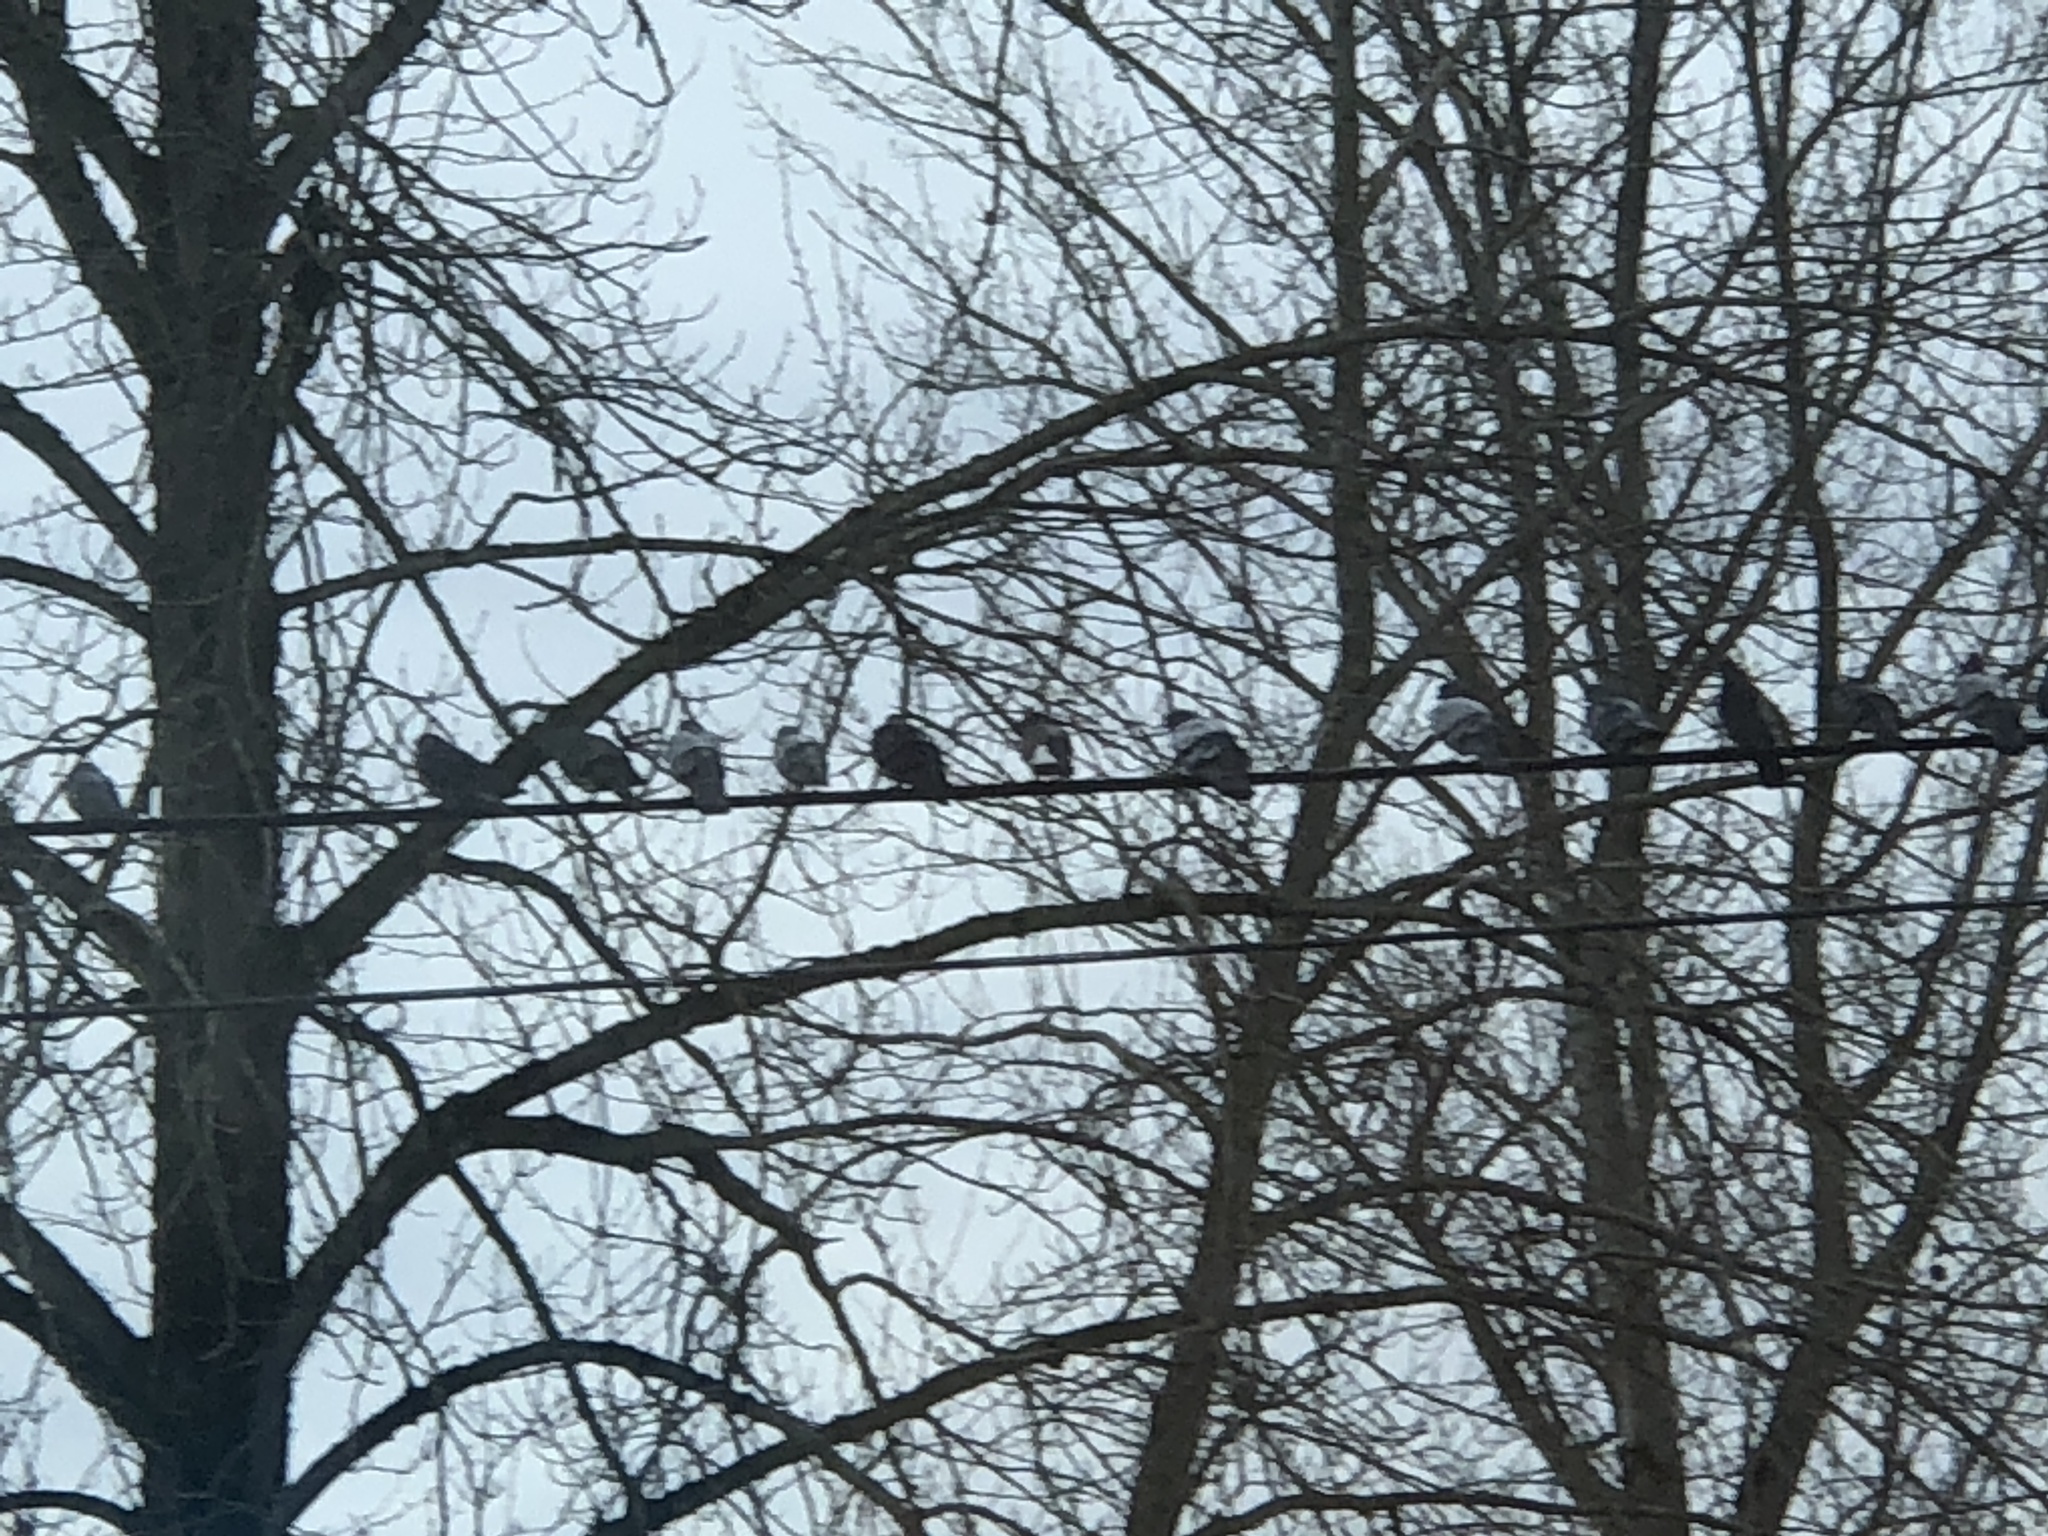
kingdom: Animalia
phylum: Chordata
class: Aves
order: Columbiformes
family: Columbidae
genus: Columba
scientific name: Columba livia
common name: Rock pigeon
